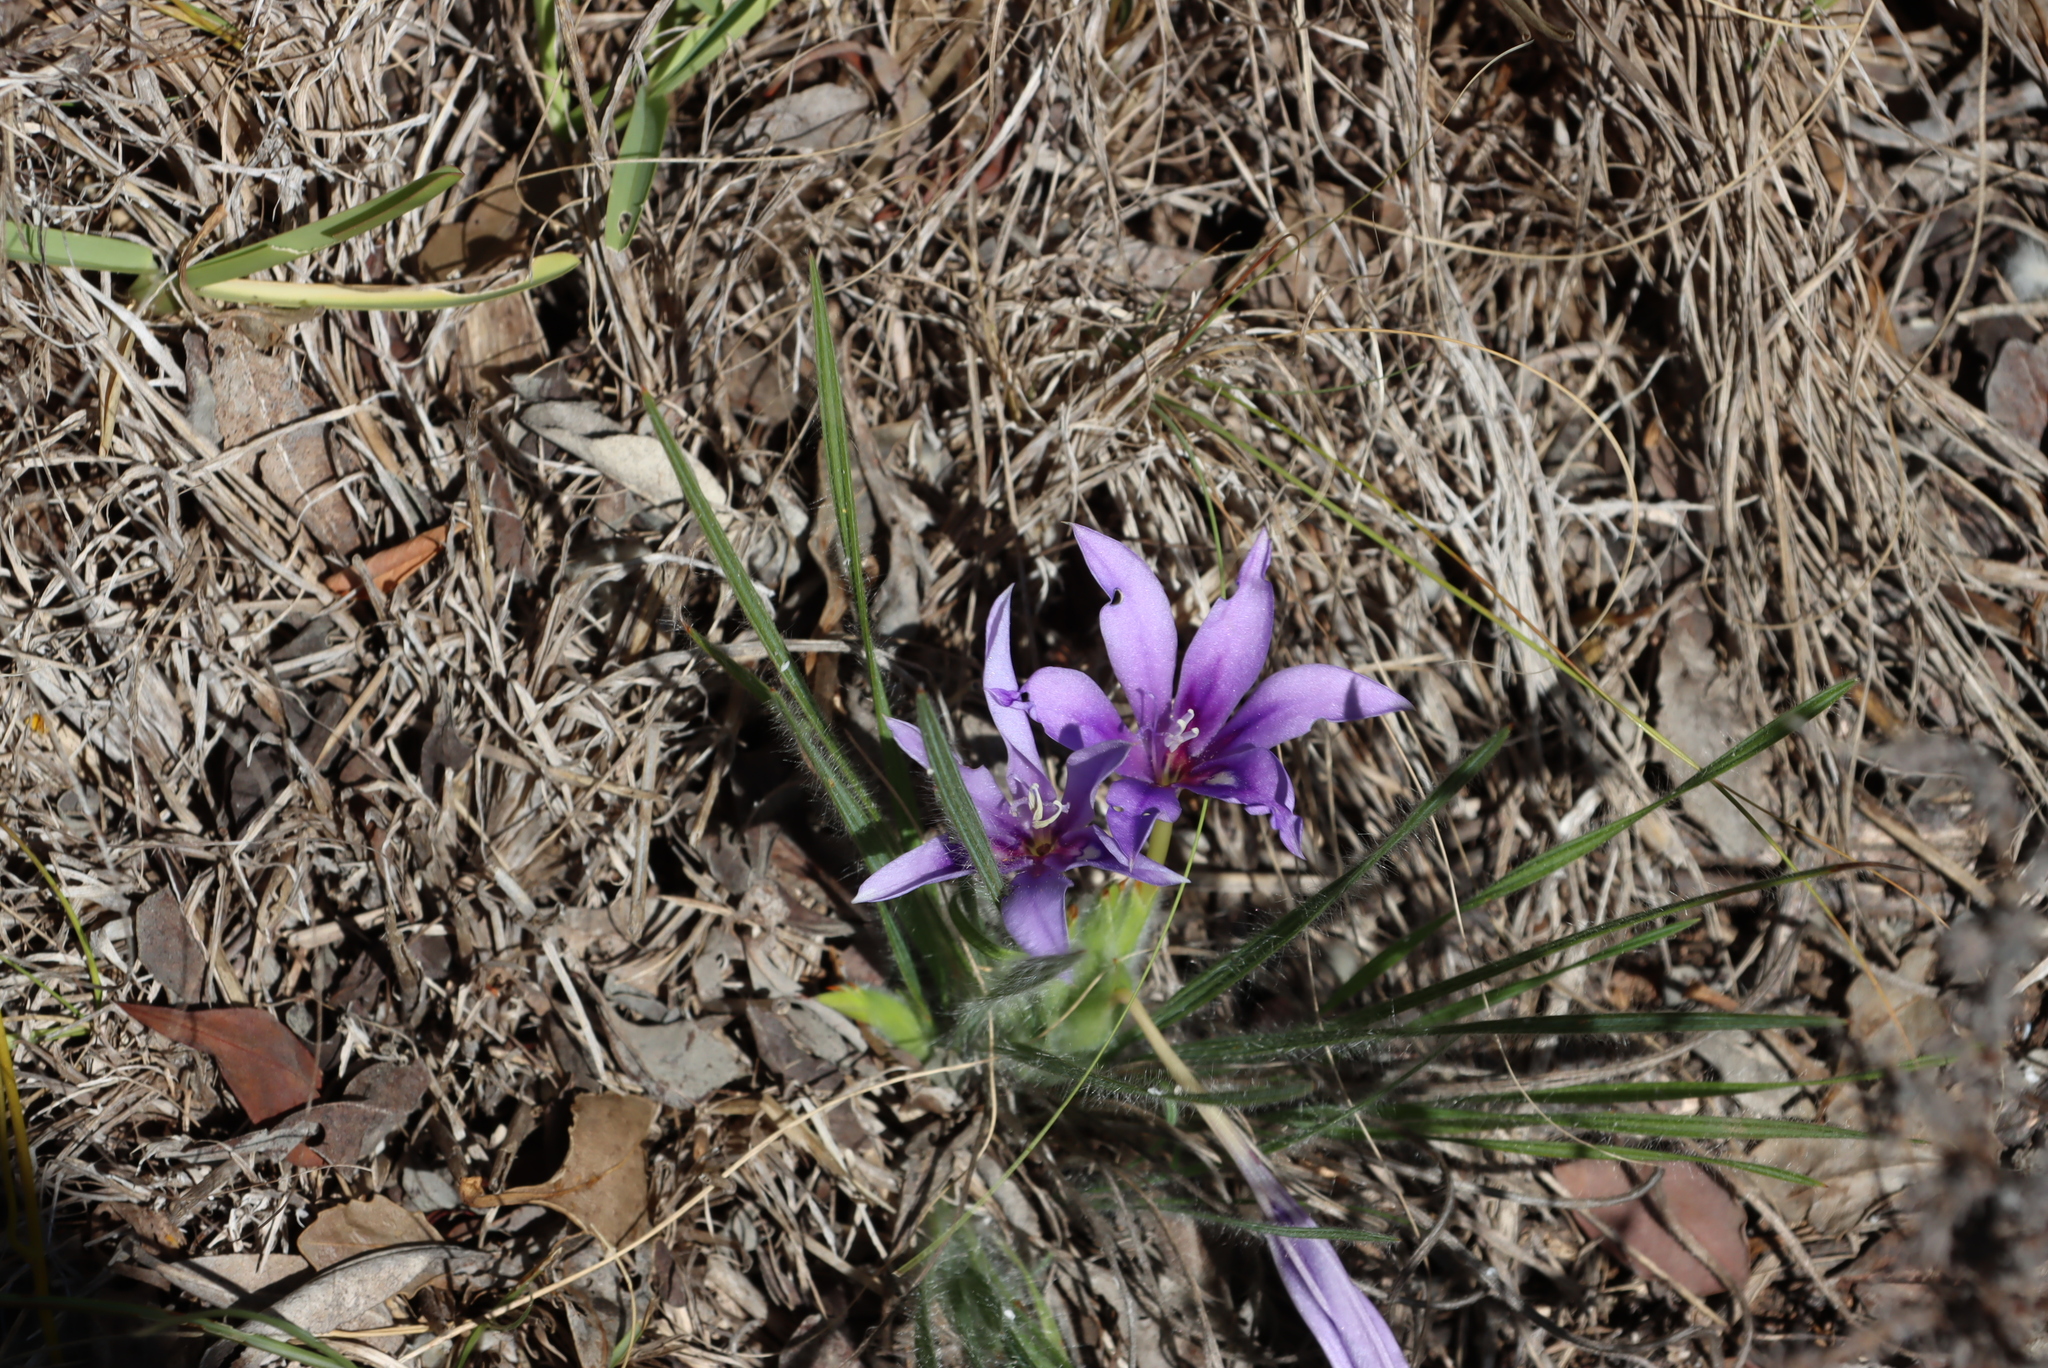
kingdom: Plantae
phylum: Tracheophyta
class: Liliopsida
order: Asparagales
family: Iridaceae
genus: Babiana
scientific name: Babiana sambucina
